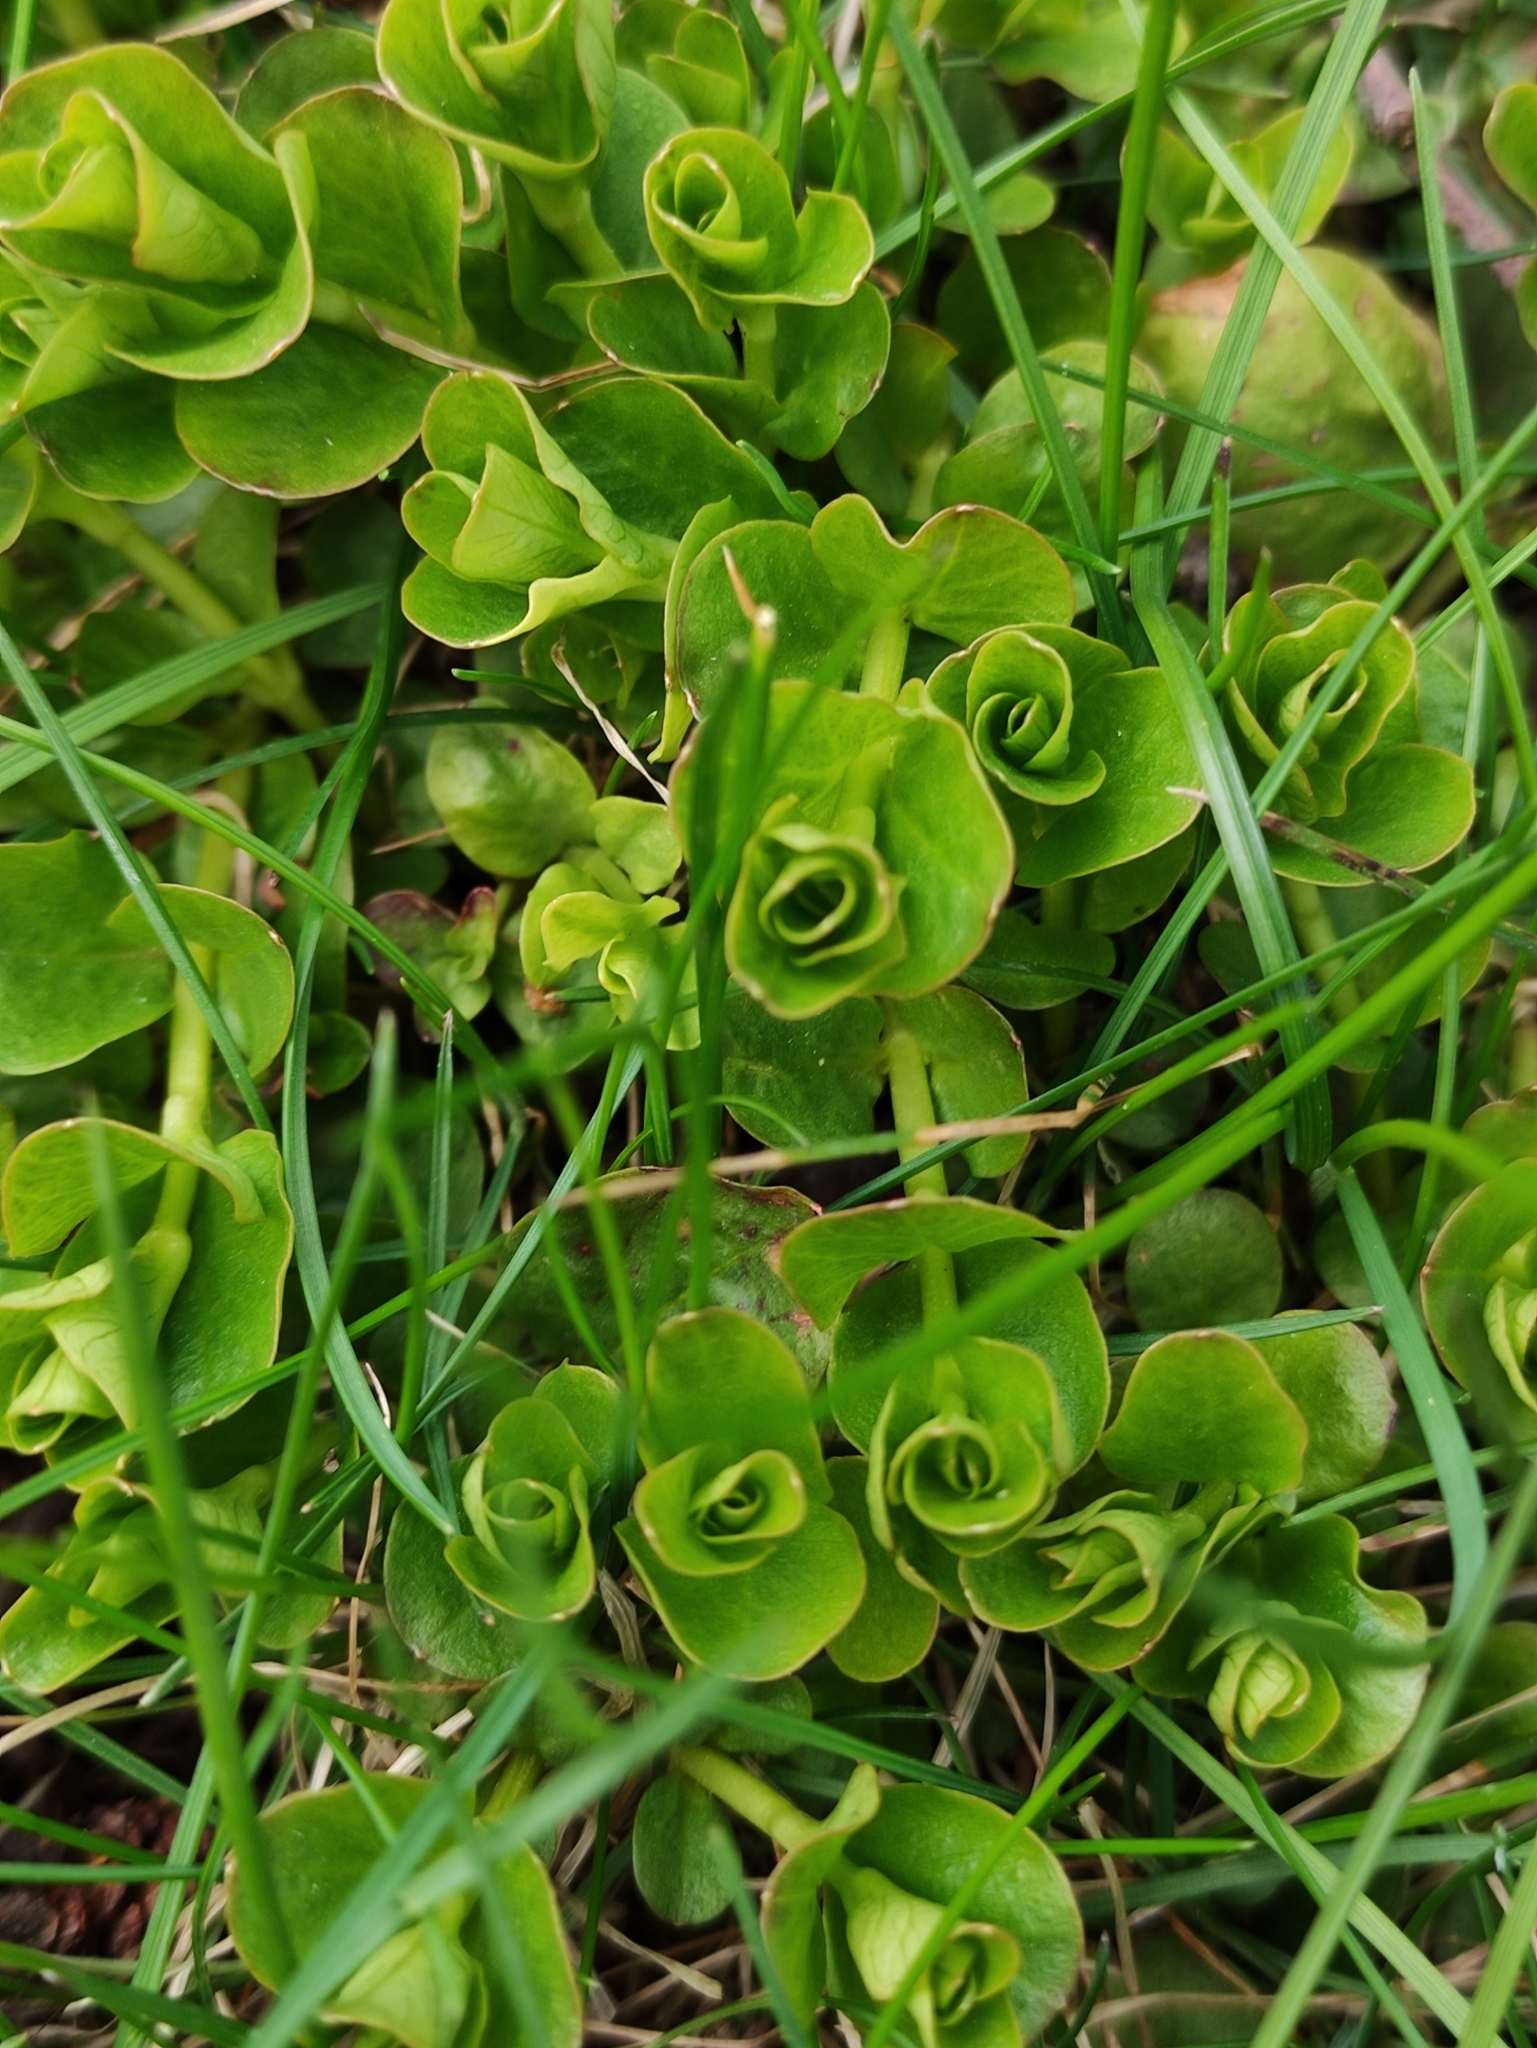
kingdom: Plantae
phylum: Tracheophyta
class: Magnoliopsida
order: Ericales
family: Primulaceae
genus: Lysimachia
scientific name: Lysimachia nummularia
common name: Moneywort
